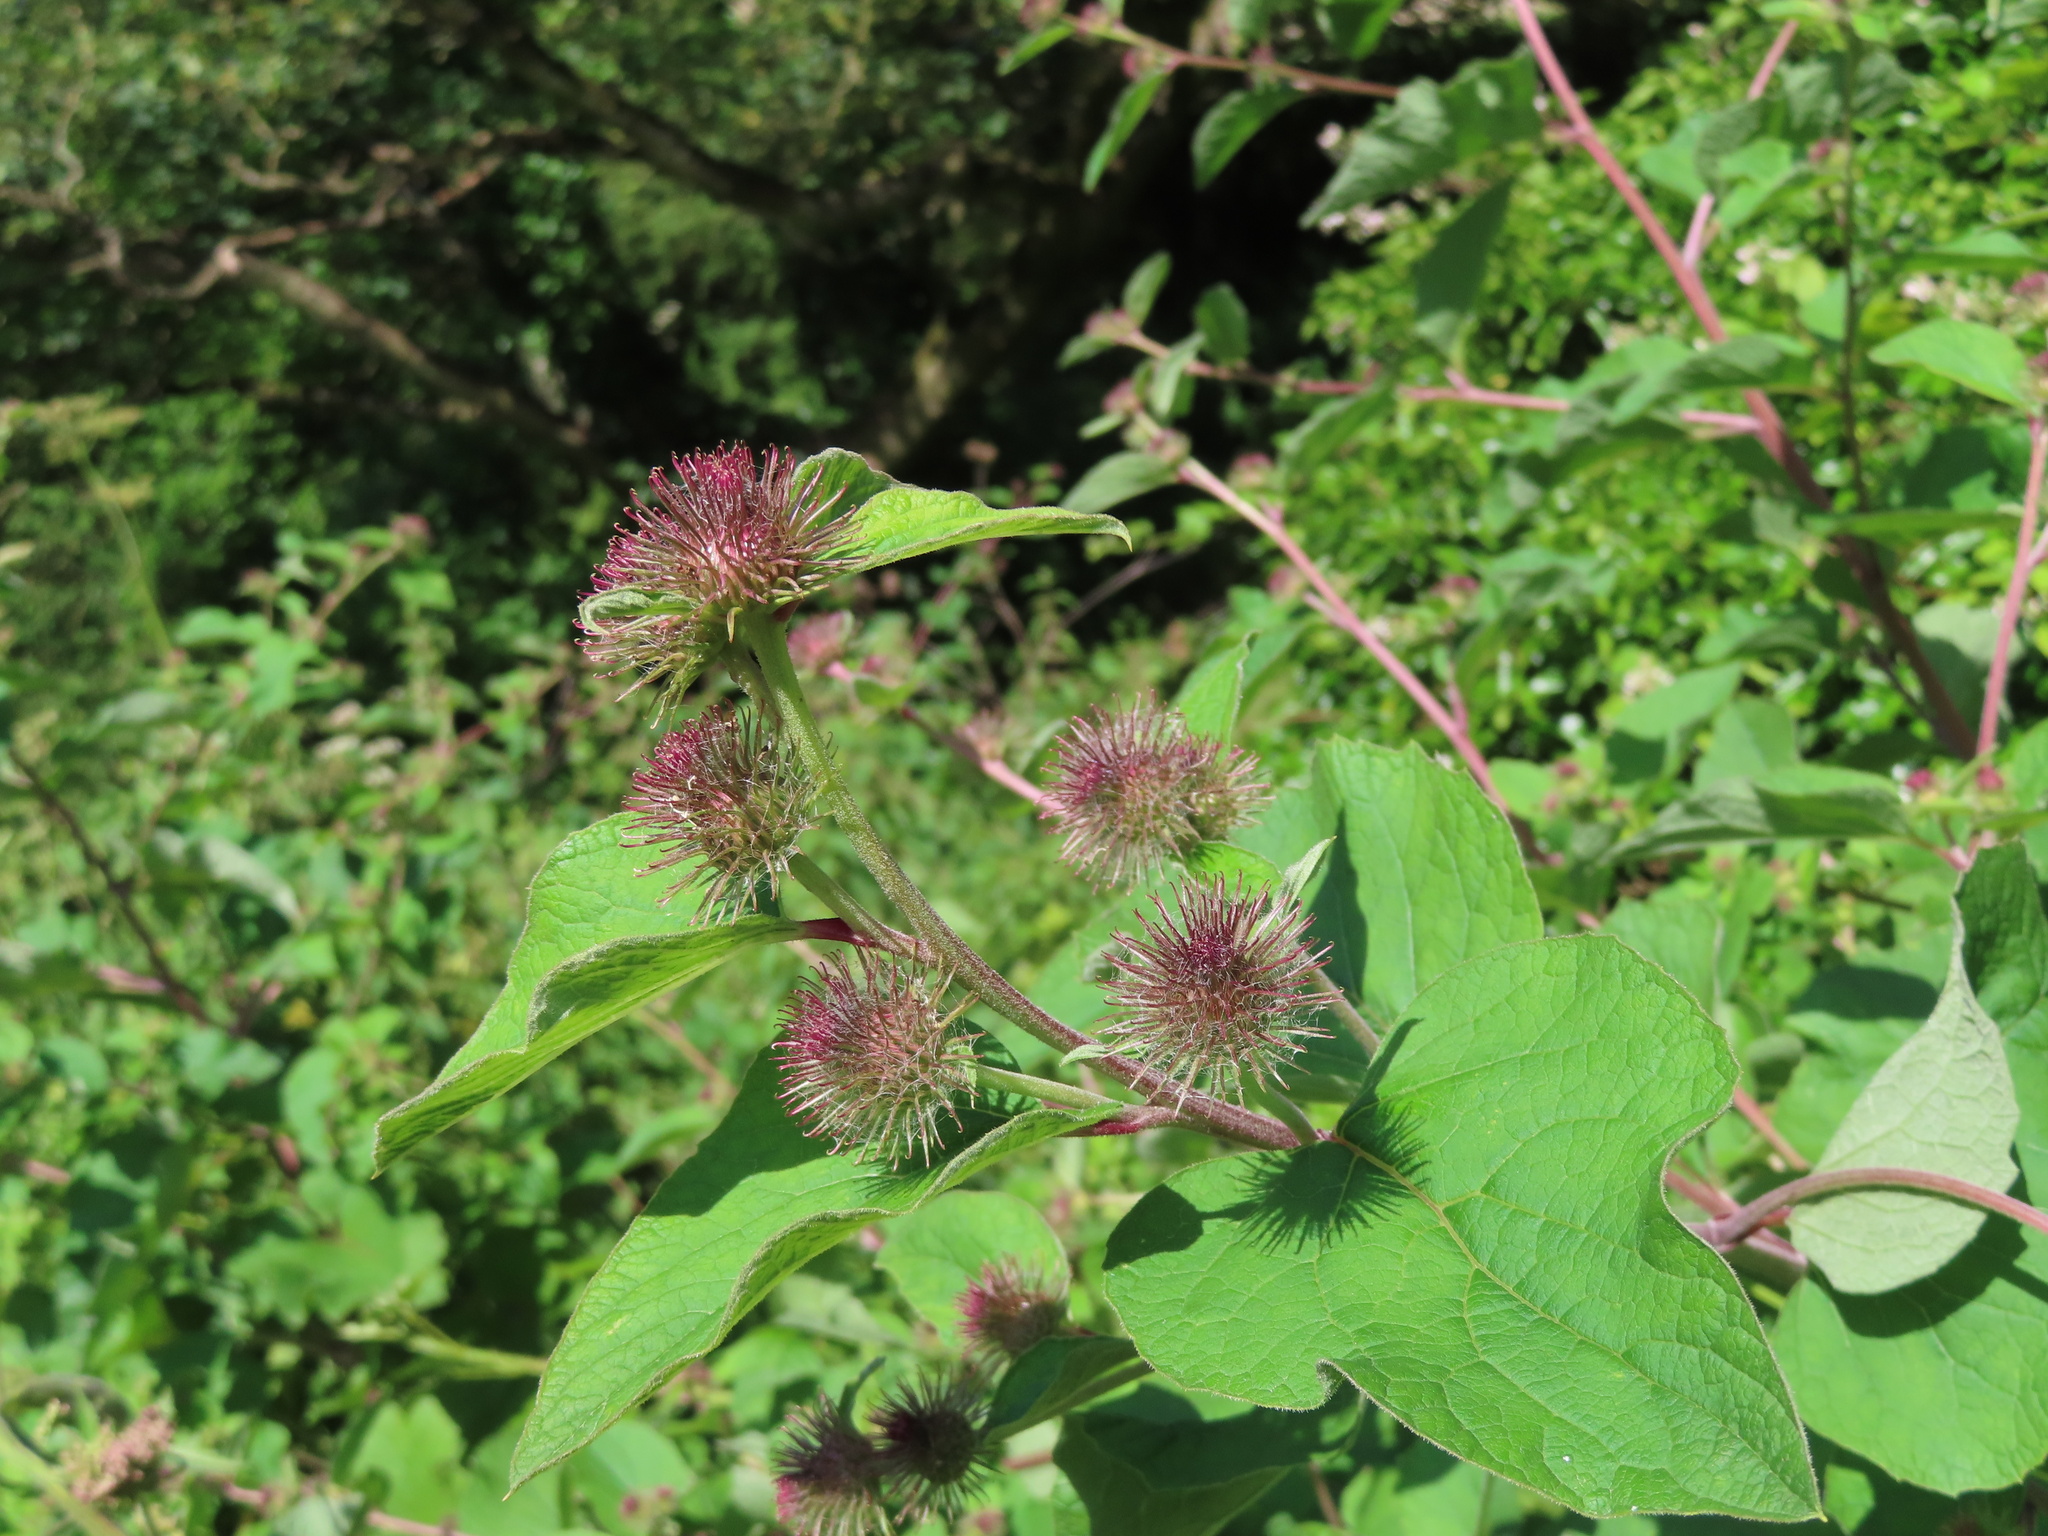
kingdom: Plantae
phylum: Tracheophyta
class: Magnoliopsida
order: Asterales
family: Asteraceae
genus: Arctium
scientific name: Arctium lappa
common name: Greater burdock
